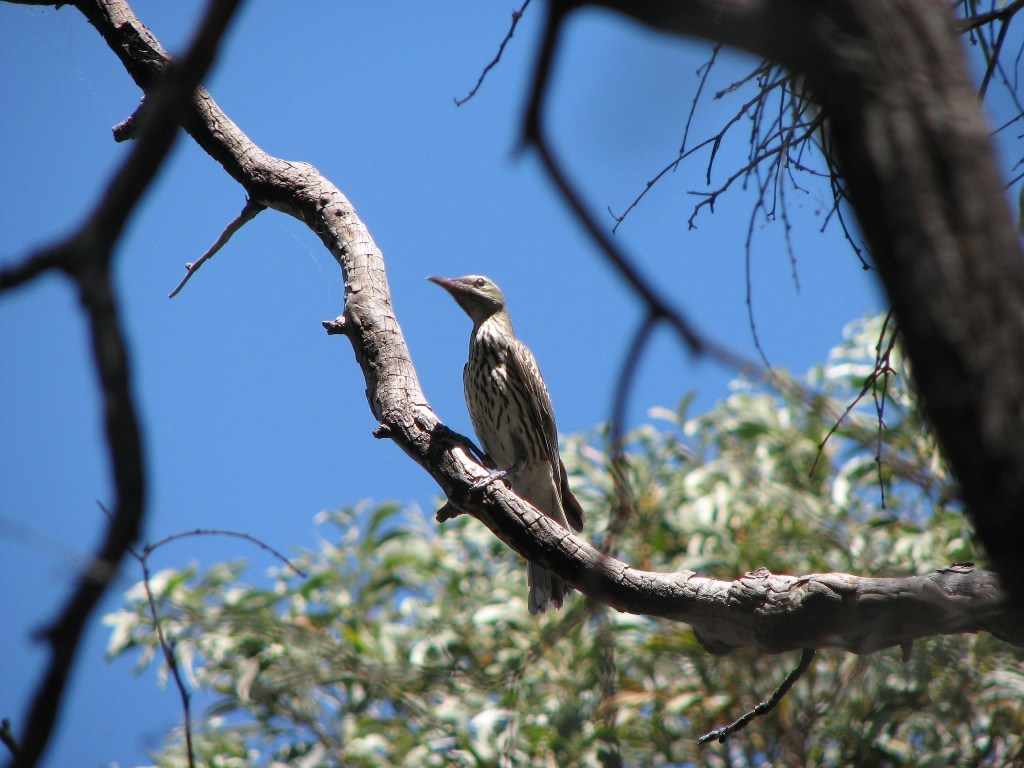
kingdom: Animalia
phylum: Chordata
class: Aves
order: Passeriformes
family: Oriolidae
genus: Oriolus
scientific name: Oriolus sagittatus
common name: Olive-backed oriole
